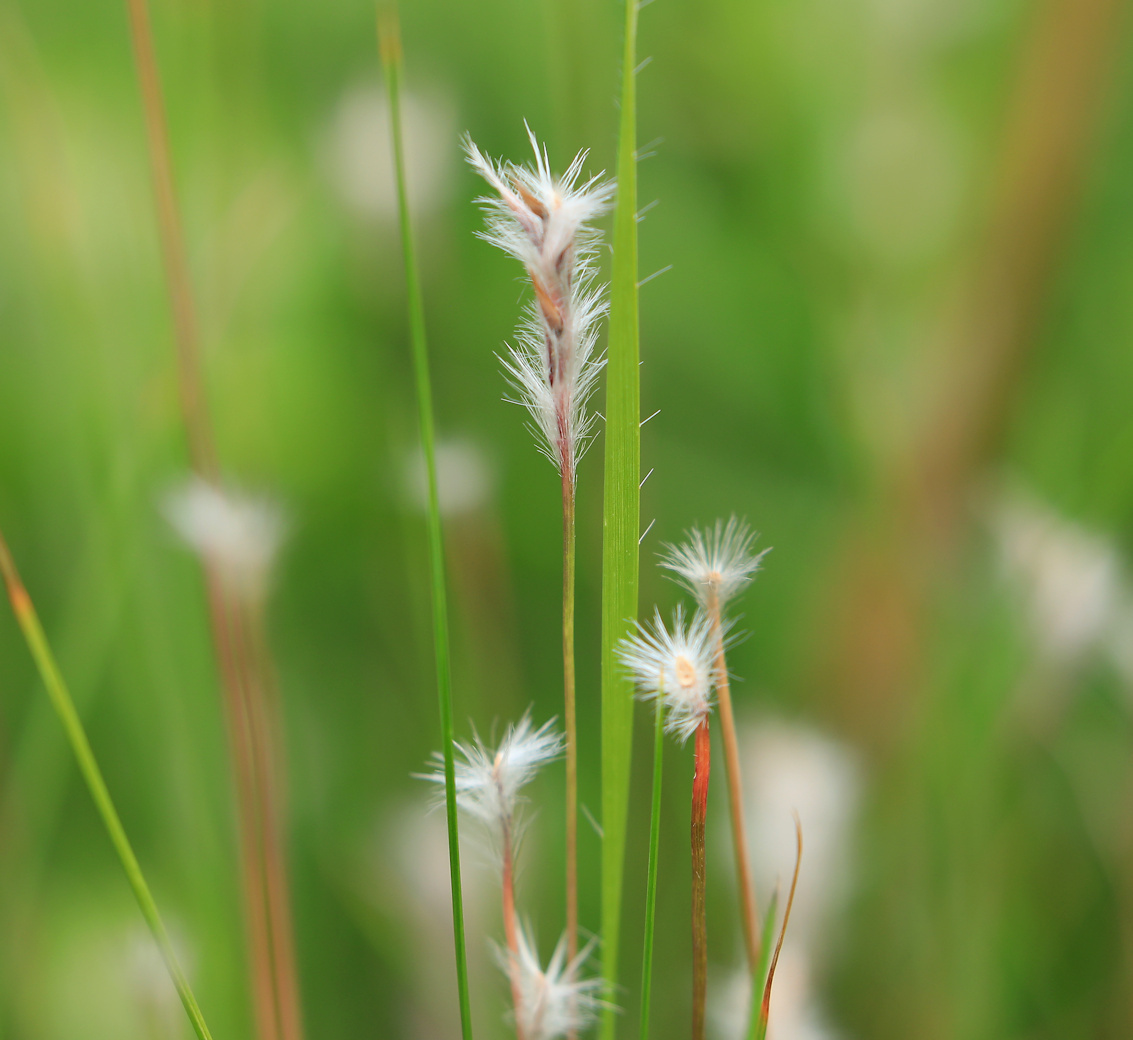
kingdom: Plantae
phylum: Tracheophyta
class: Liliopsida
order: Poales
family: Poaceae
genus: Elionurus
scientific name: Elionurus muticus
